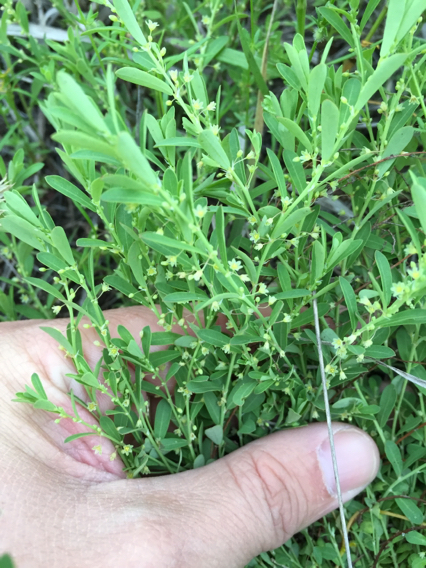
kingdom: Plantae
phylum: Tracheophyta
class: Magnoliopsida
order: Malpighiales
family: Phyllanthaceae
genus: Phyllanthus
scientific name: Phyllanthus polygonoides
